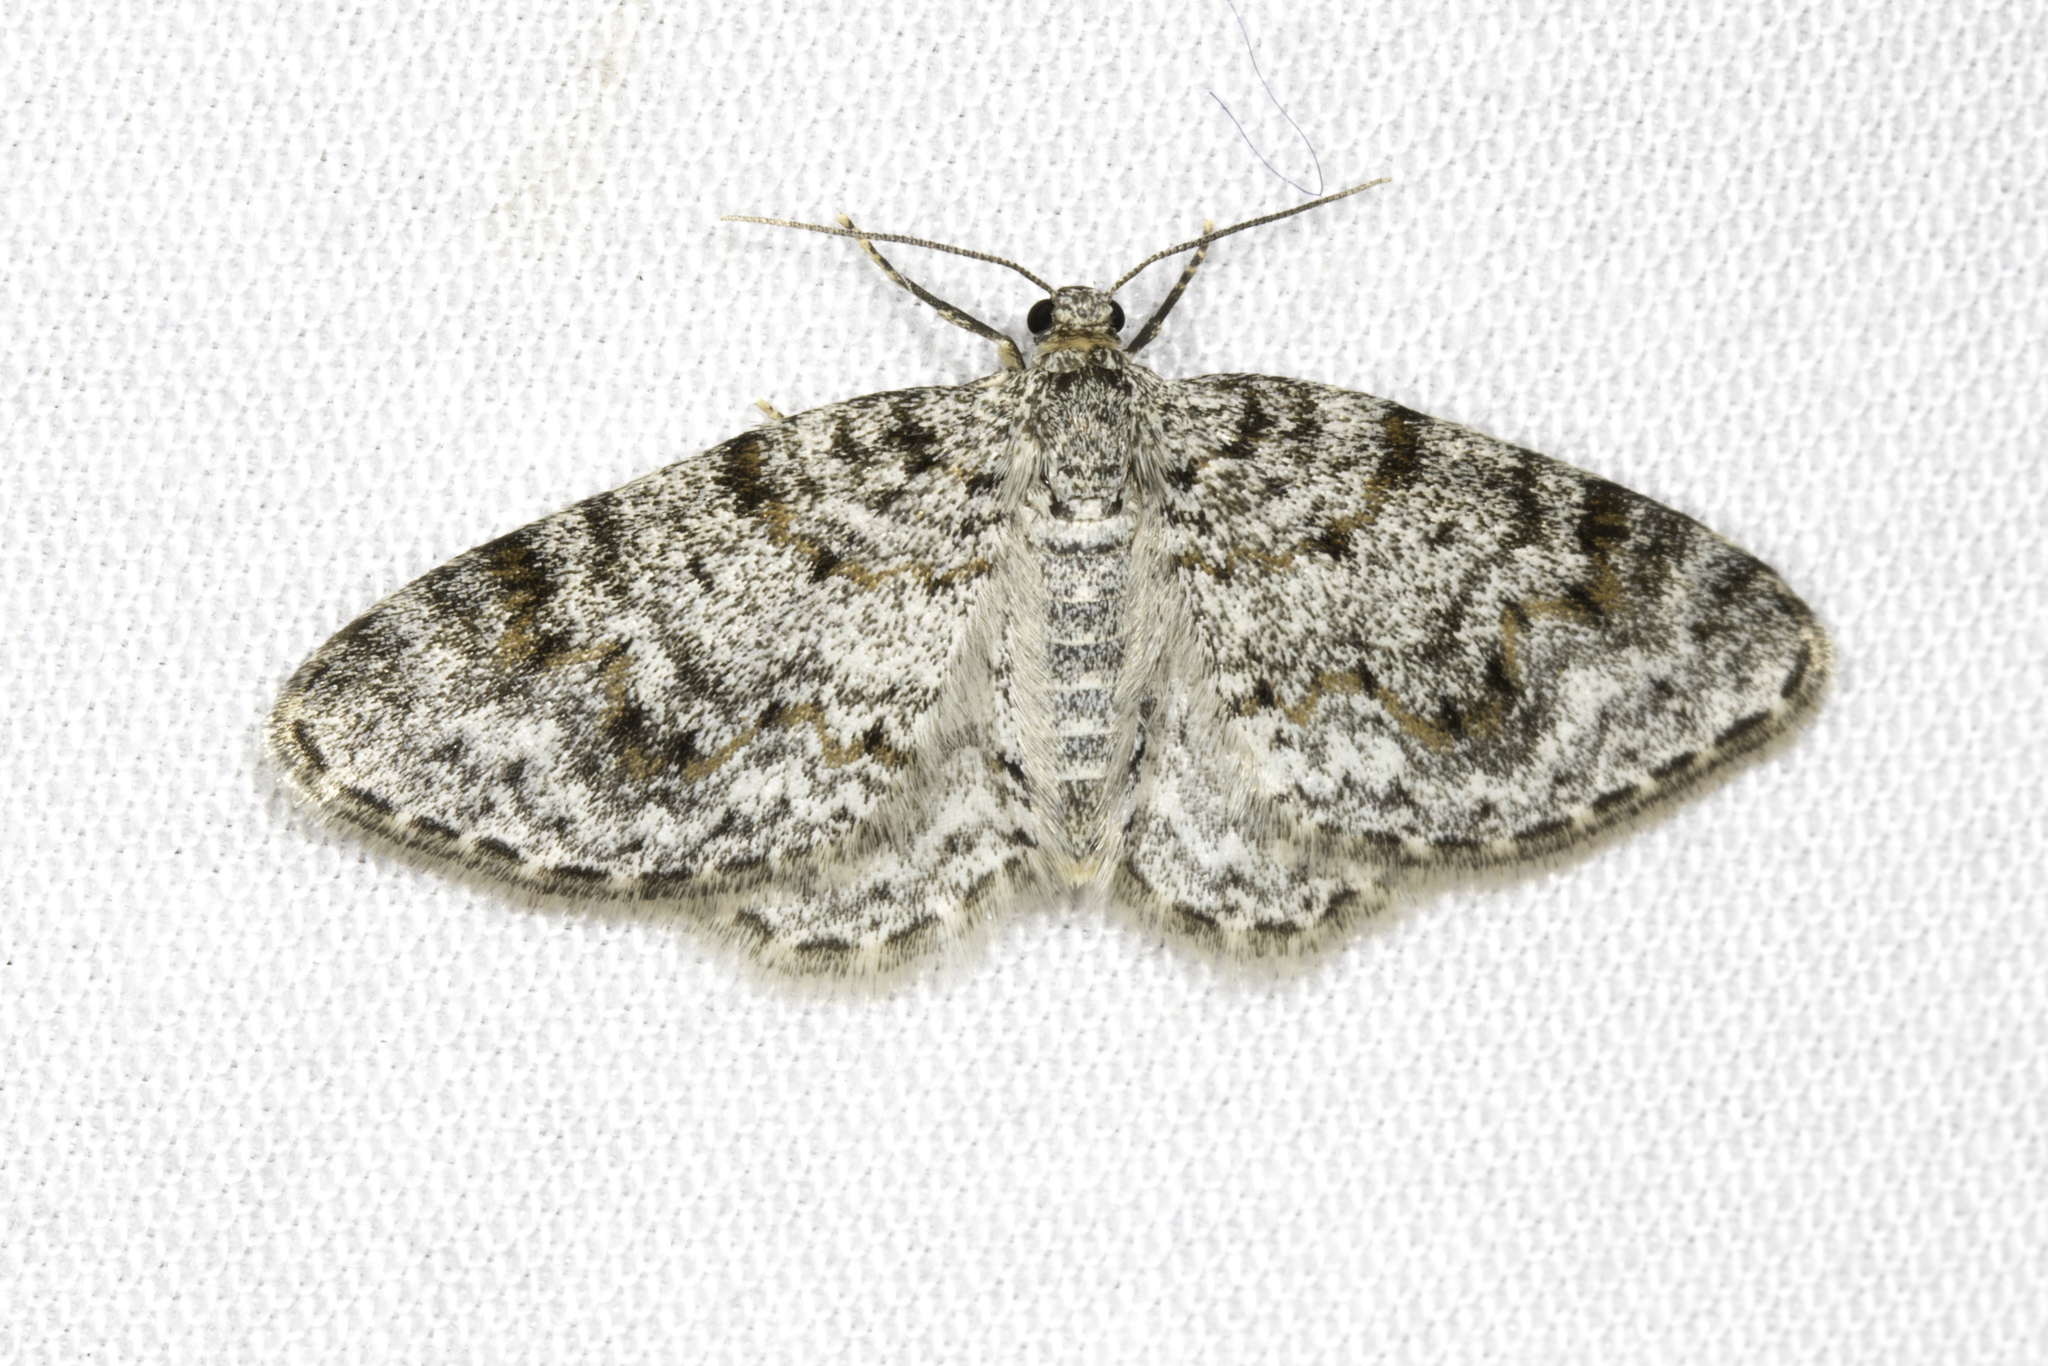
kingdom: Animalia
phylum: Arthropoda
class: Insecta
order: Lepidoptera
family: Geometridae
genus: Venusia
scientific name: Venusia comptaria
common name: Brown-shaded carpet
